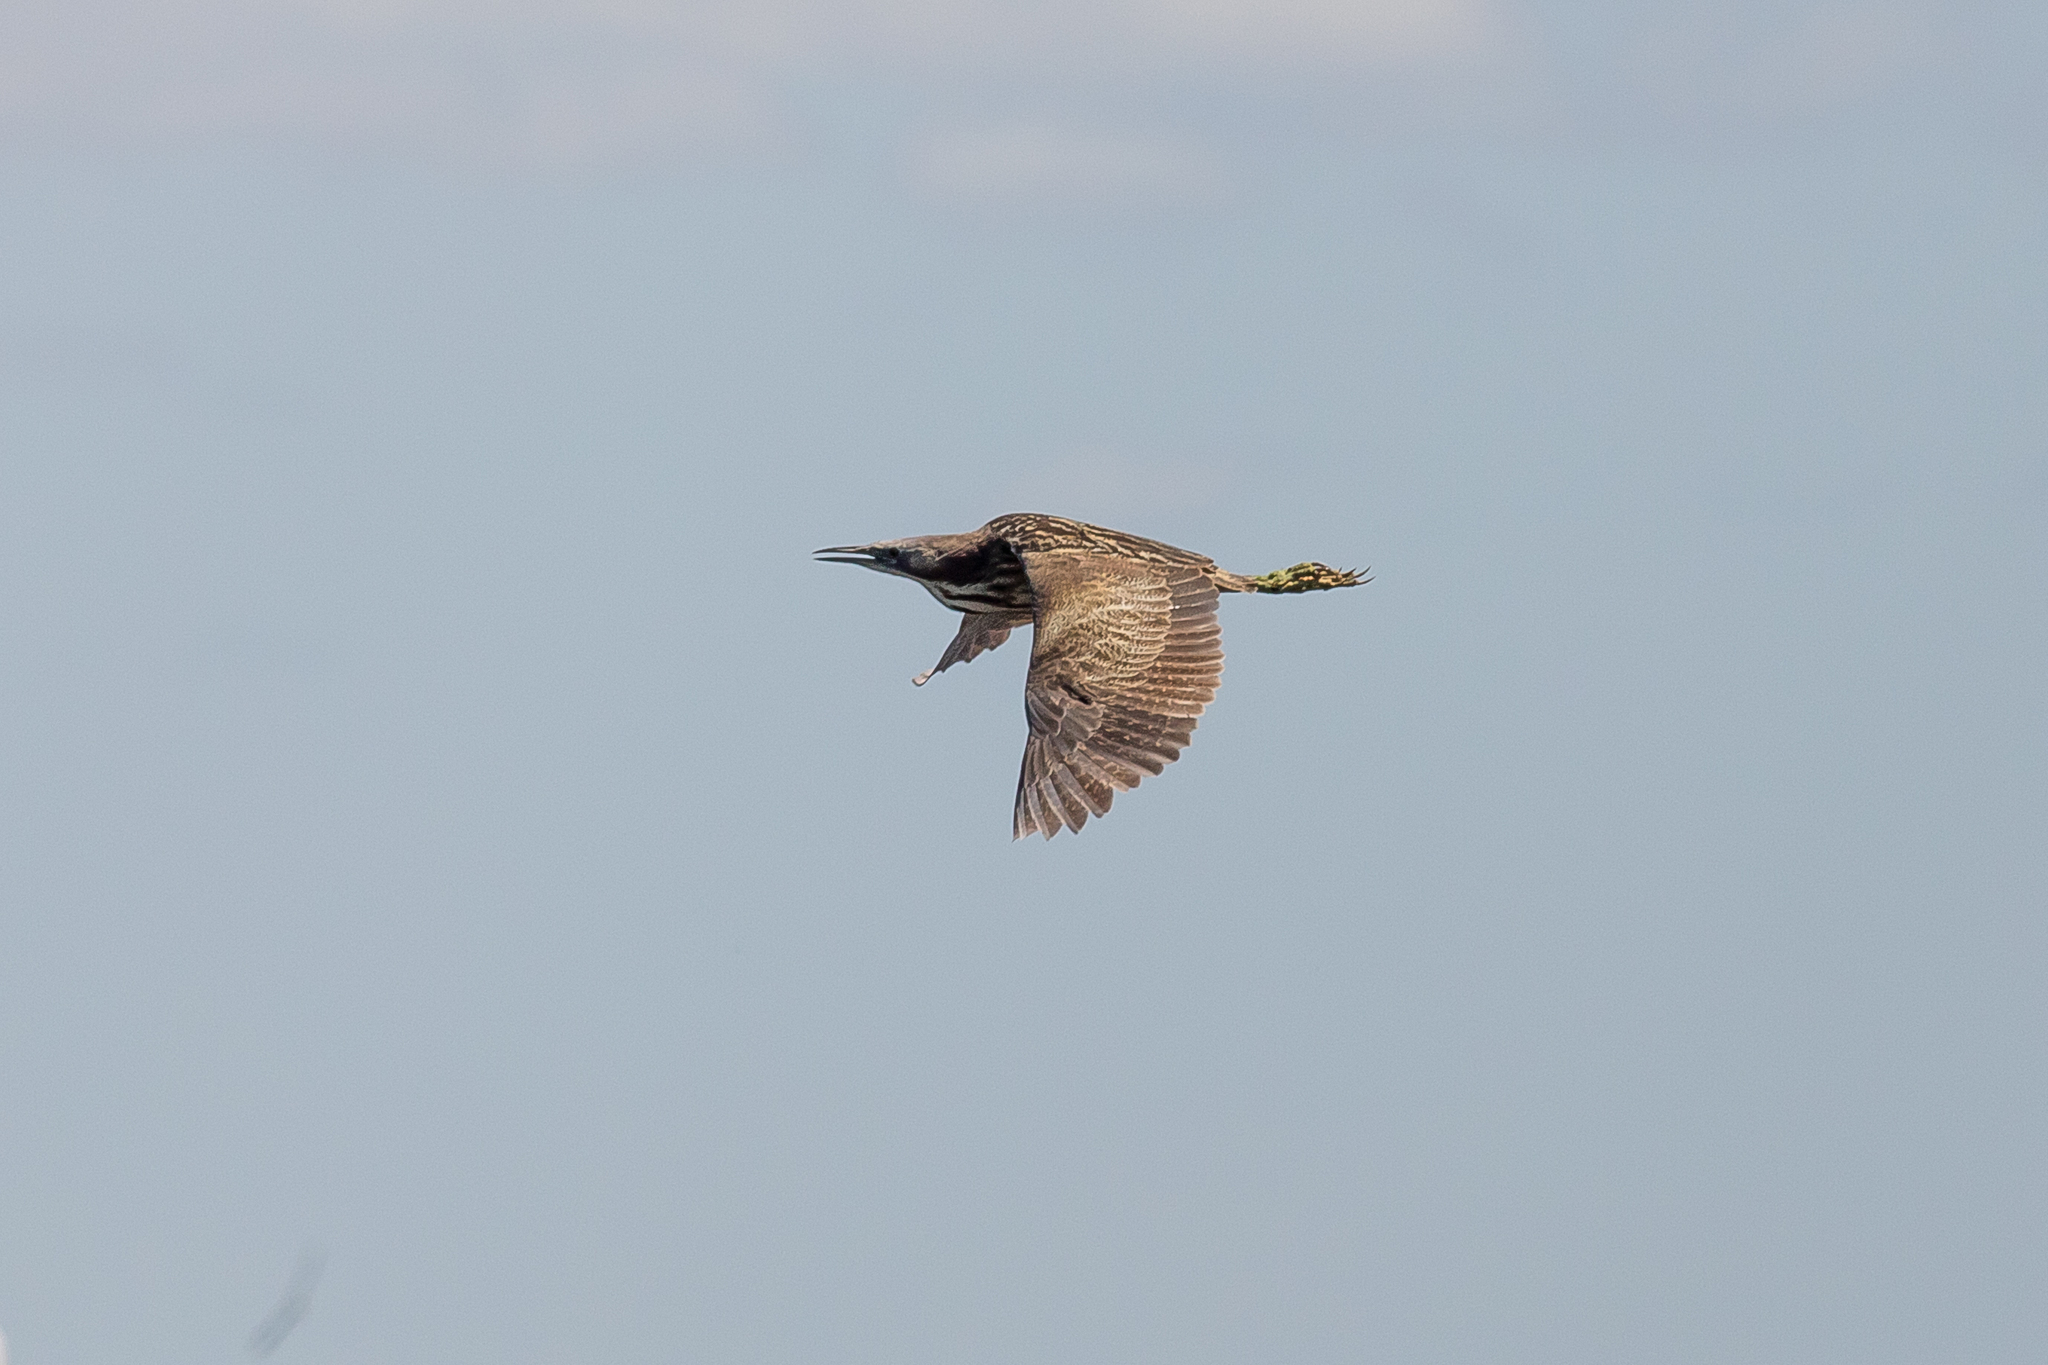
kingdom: Animalia
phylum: Chordata
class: Aves
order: Pelecaniformes
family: Ardeidae
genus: Botaurus
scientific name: Botaurus poiciloptilus
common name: Australasian bittern
